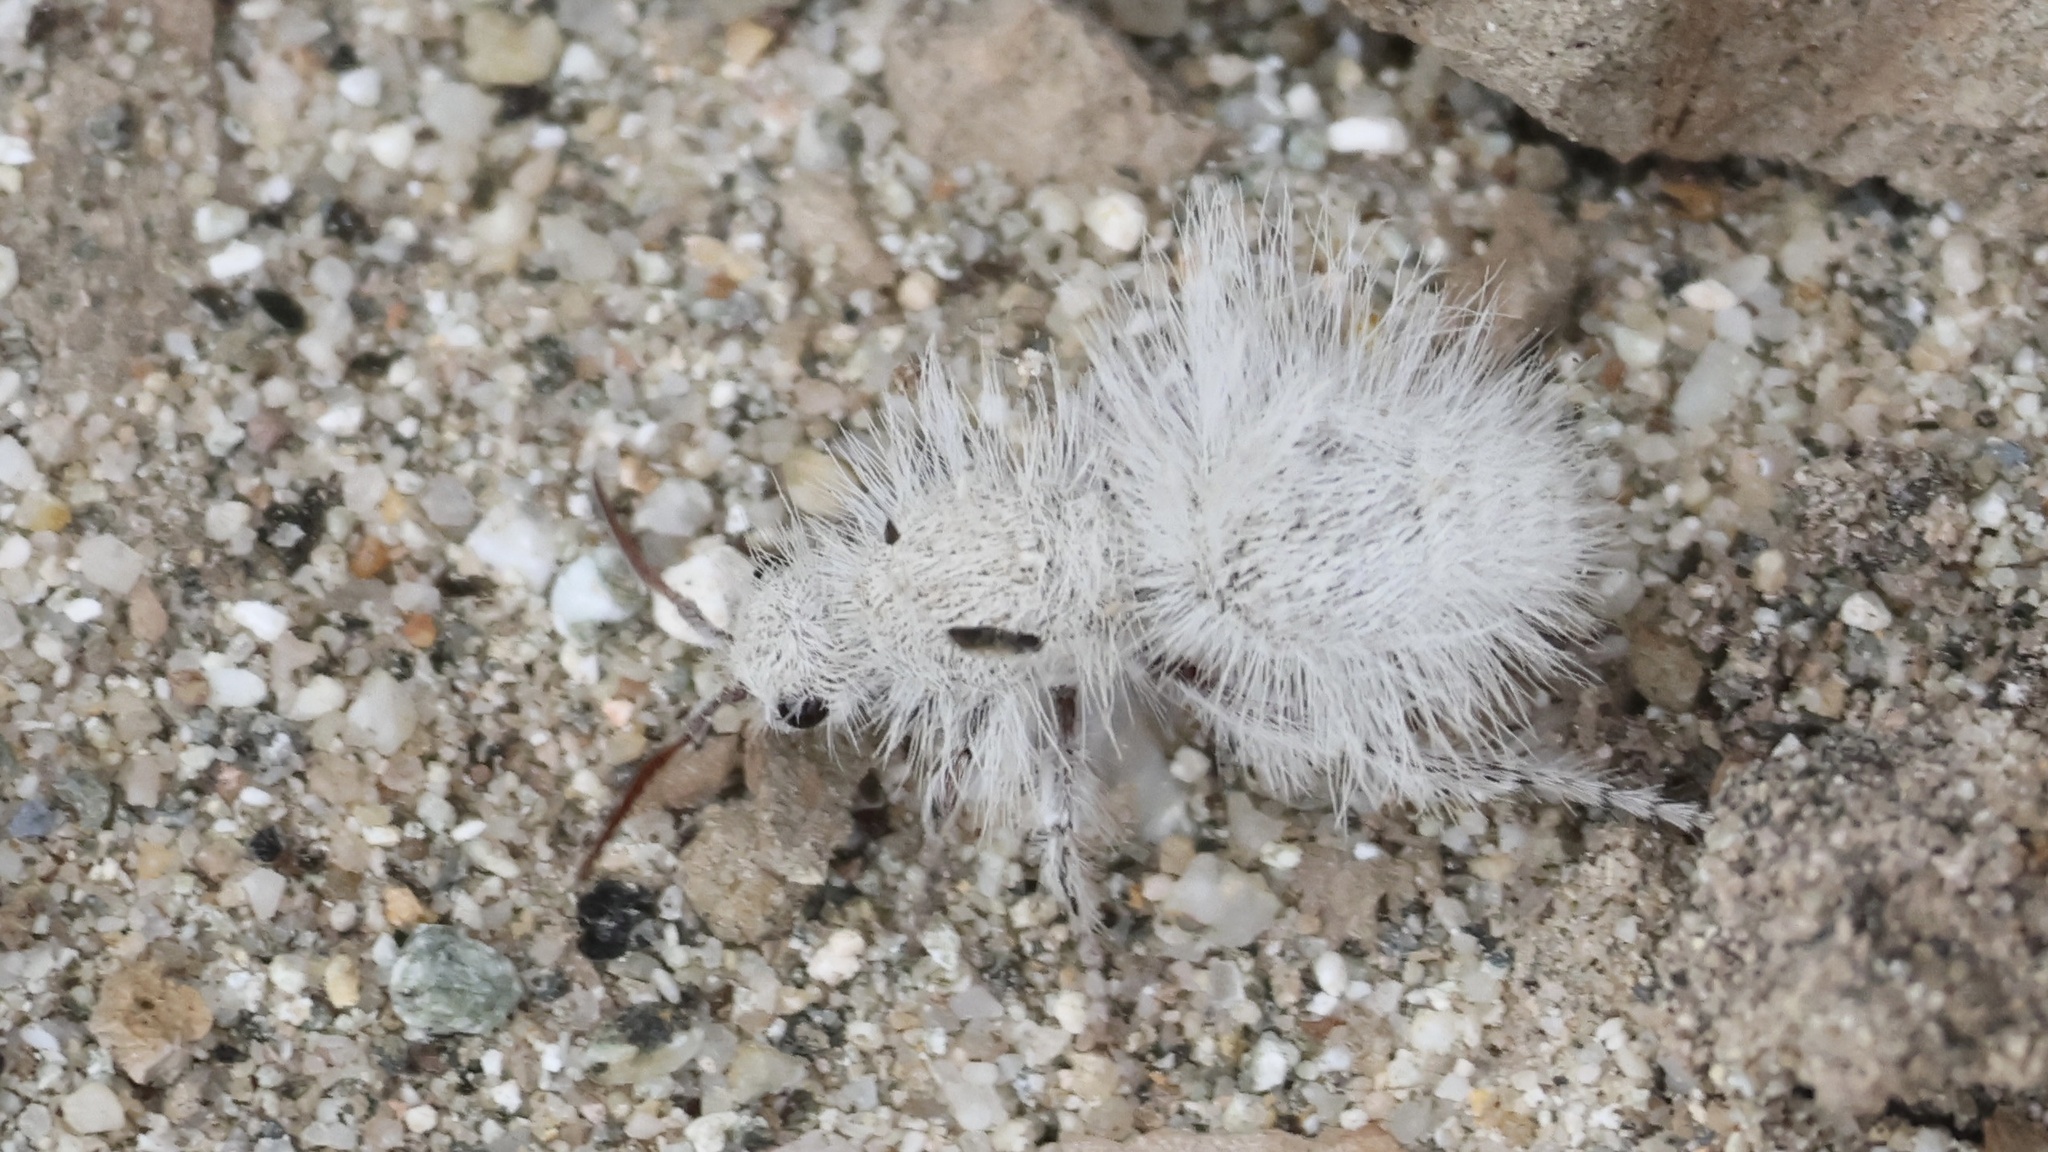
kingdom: Animalia
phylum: Arthropoda
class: Insecta
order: Hymenoptera
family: Mutillidae
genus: Dasymutilla
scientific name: Dasymutilla gloriosa
